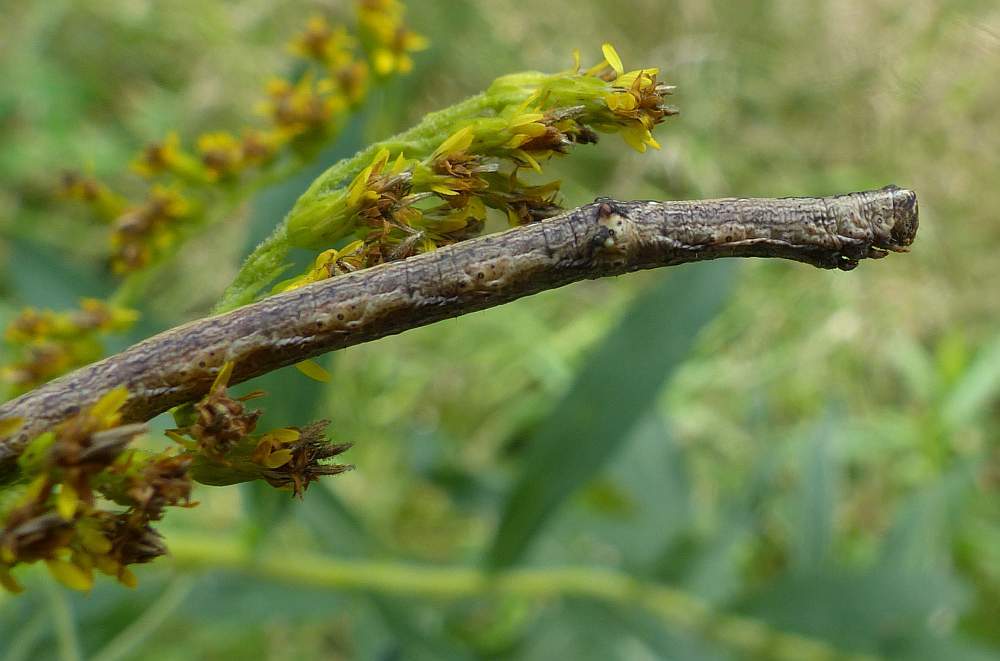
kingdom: Animalia
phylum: Arthropoda
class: Insecta
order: Lepidoptera
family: Geometridae
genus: Anavitrinella
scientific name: Anavitrinella pampinaria
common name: Common gray
